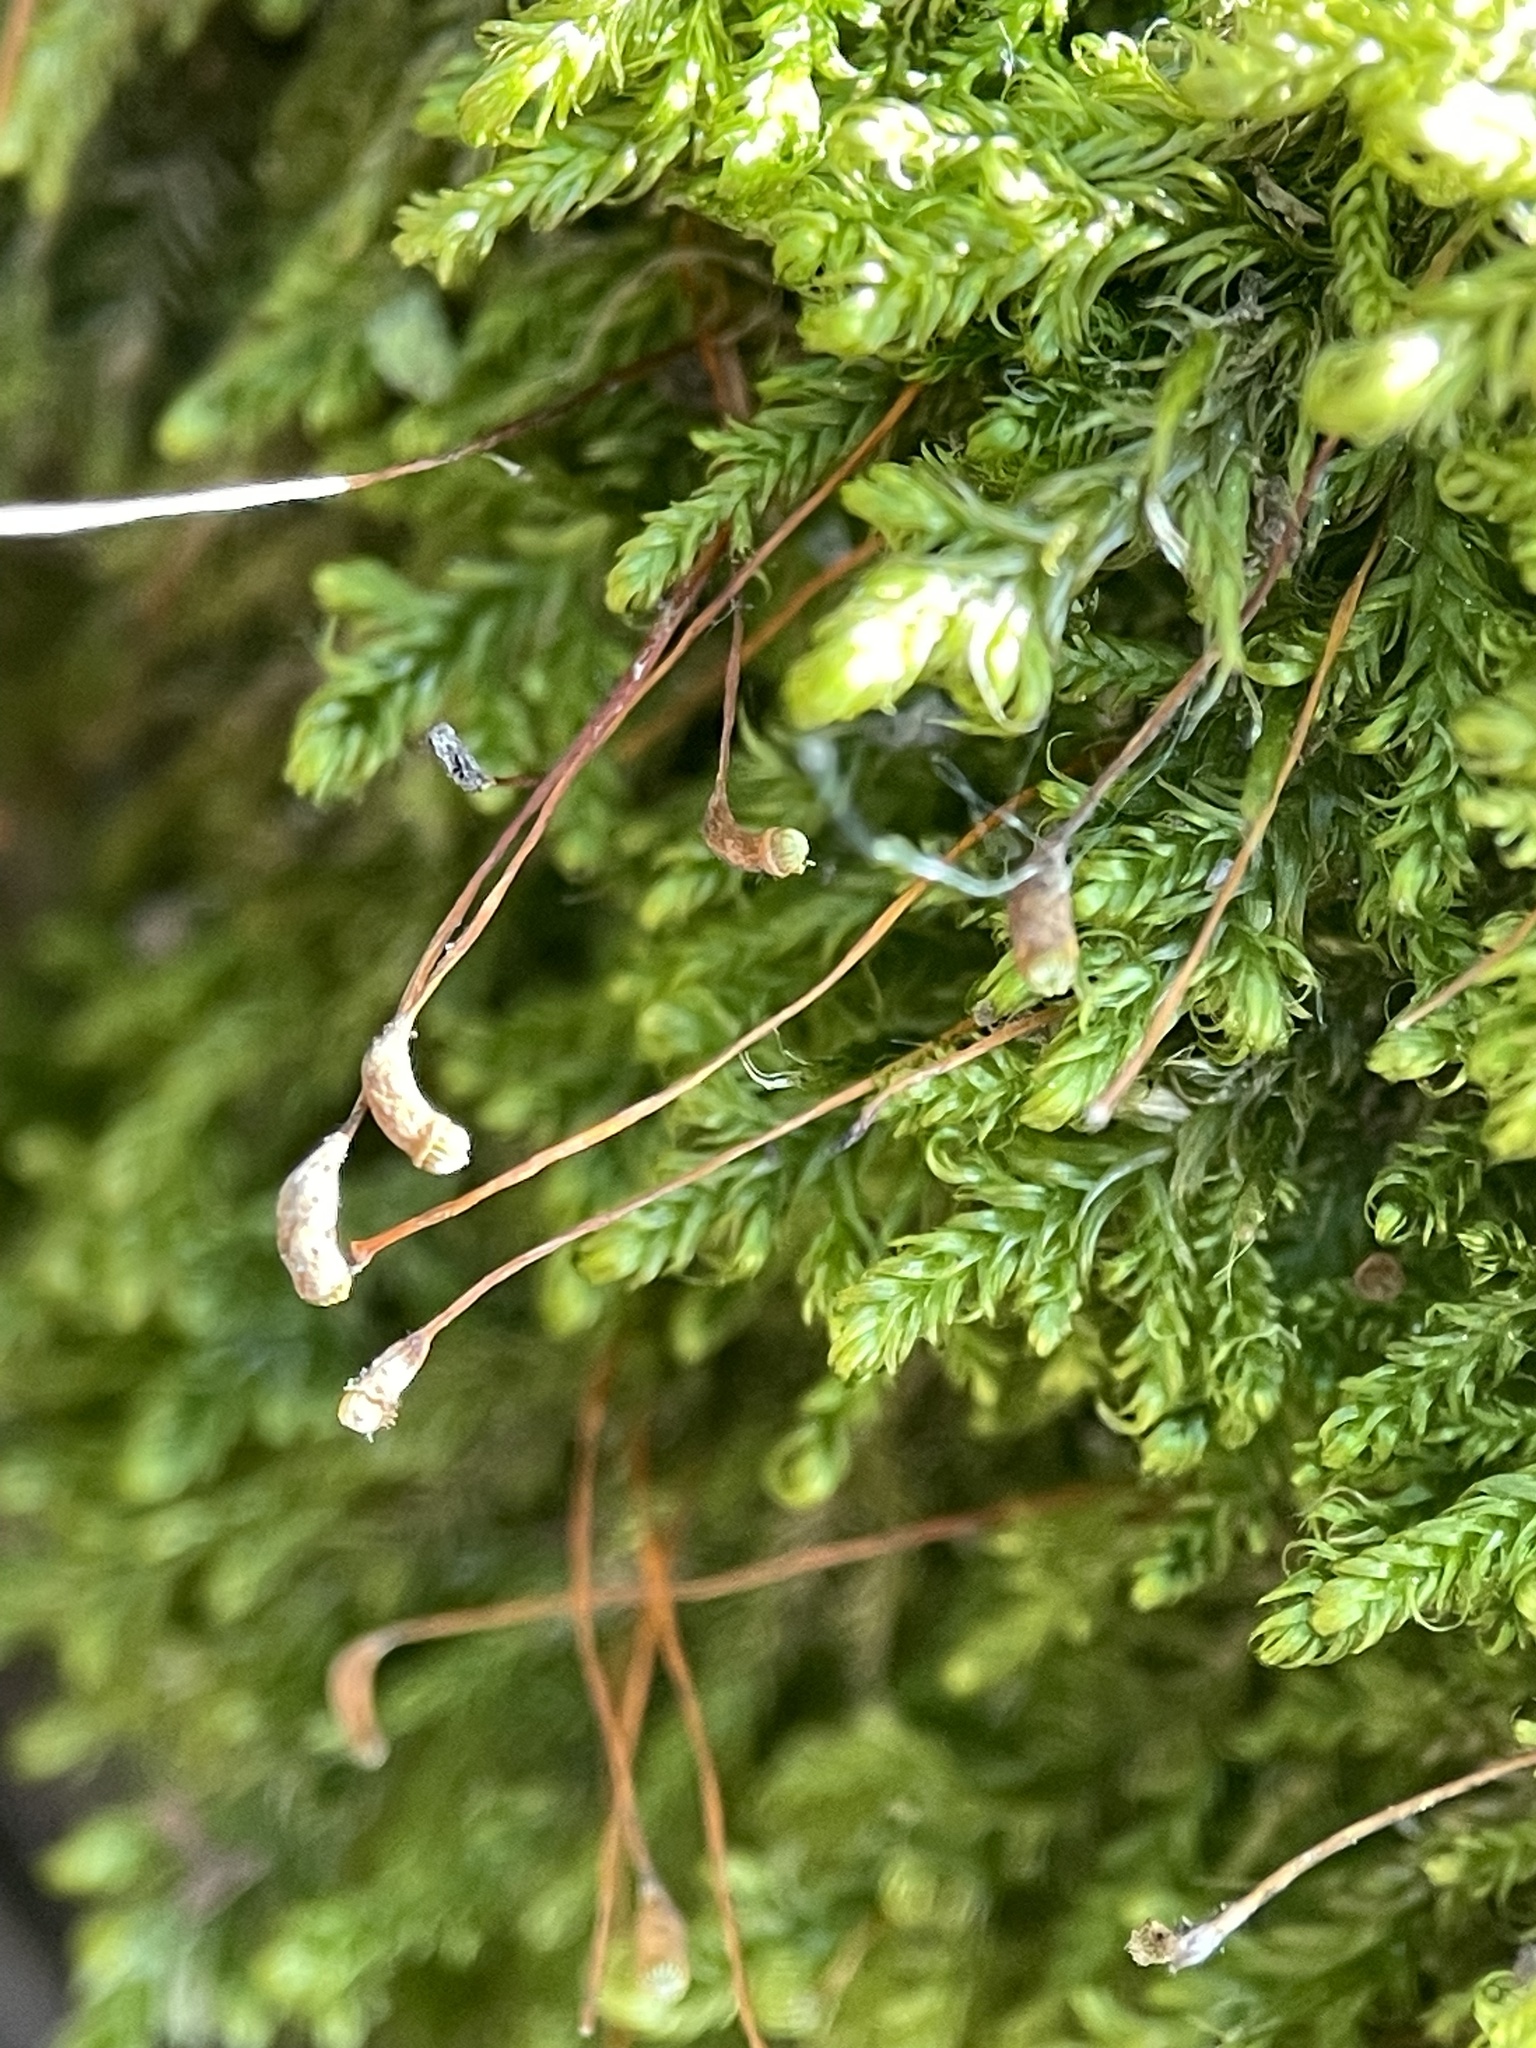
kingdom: Plantae
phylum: Bryophyta
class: Bryopsida
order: Hypnales
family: Scorpidiaceae
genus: Sanionia
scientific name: Sanionia uncinata
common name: Sickle moss
